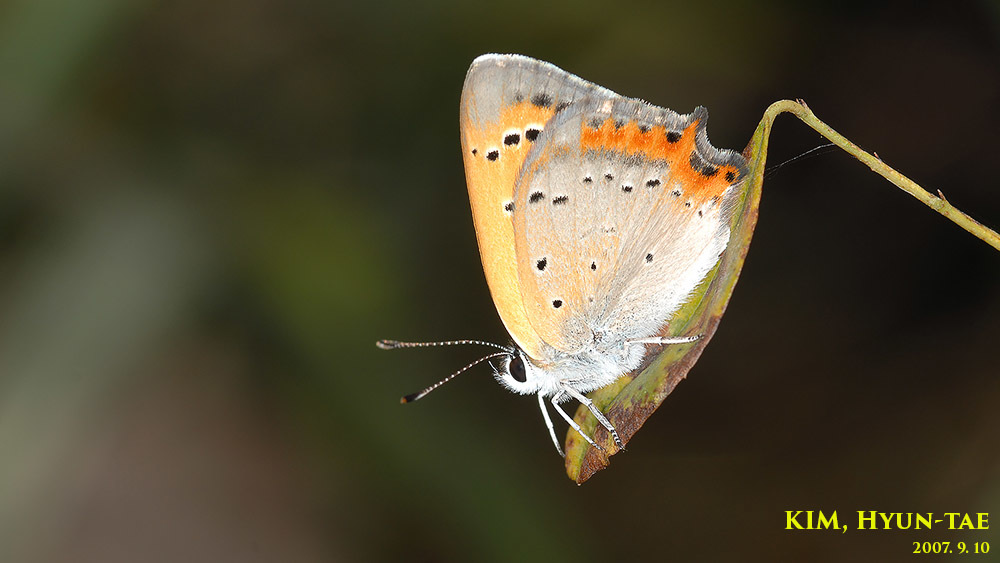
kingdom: Animalia
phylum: Arthropoda
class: Insecta
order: Lepidoptera
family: Lycaenidae
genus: Lycaena
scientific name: Lycaena phlaeas
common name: Small copper
